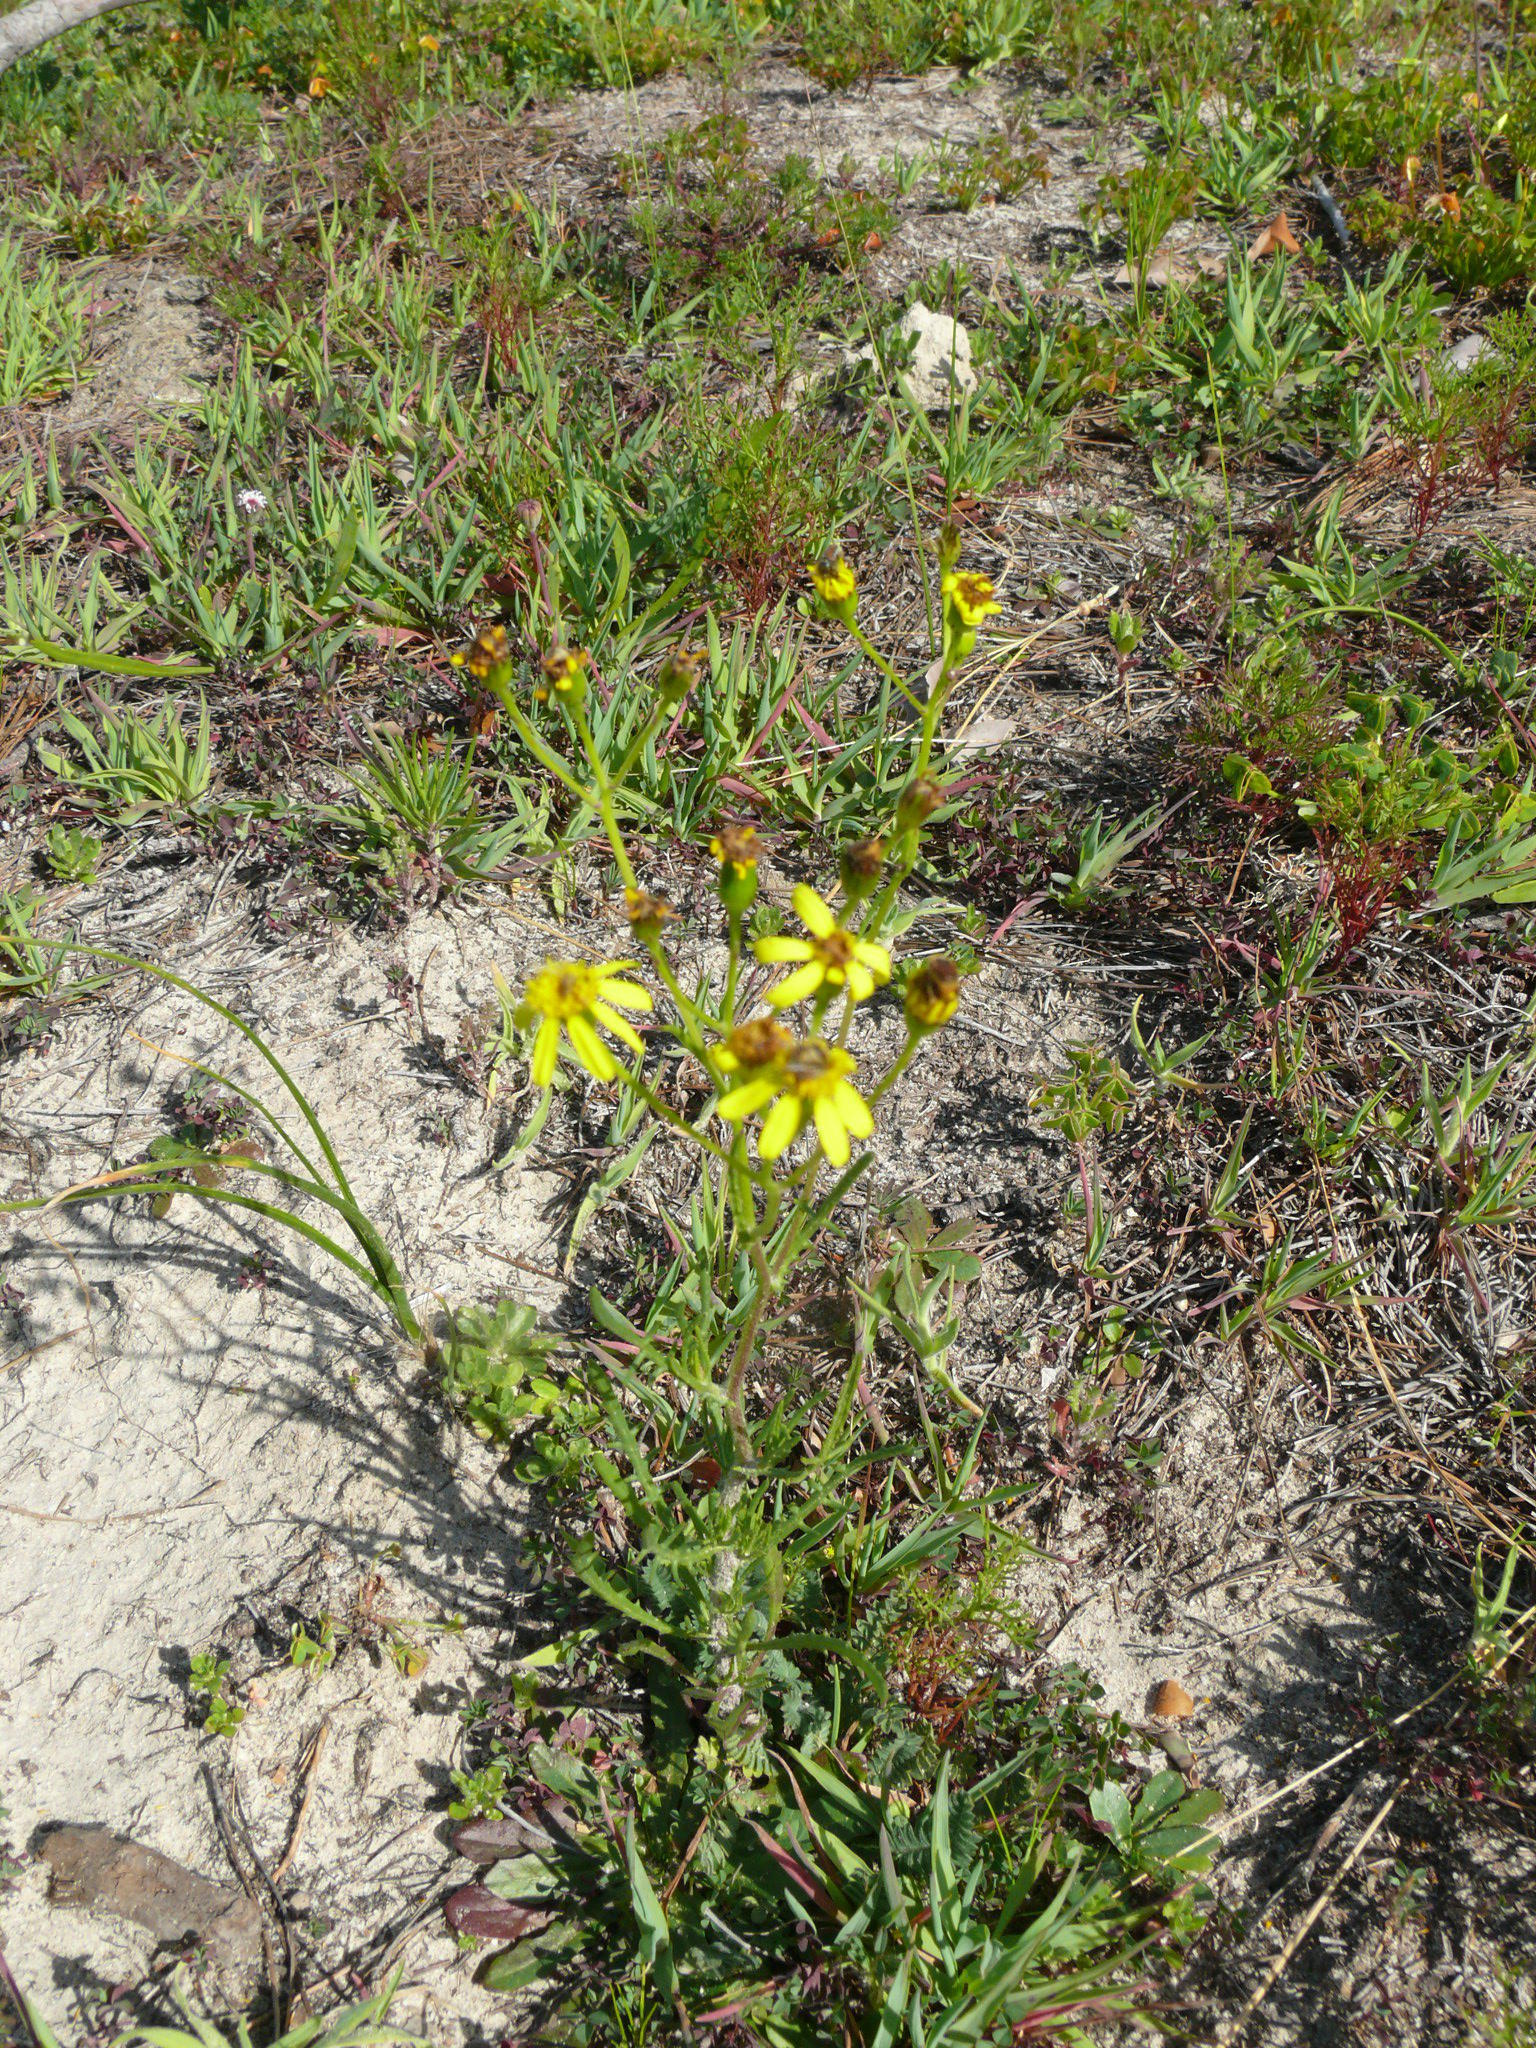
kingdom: Plantae
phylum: Tracheophyta
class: Magnoliopsida
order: Asterales
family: Asteraceae
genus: Senecio
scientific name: Senecio burchellii
